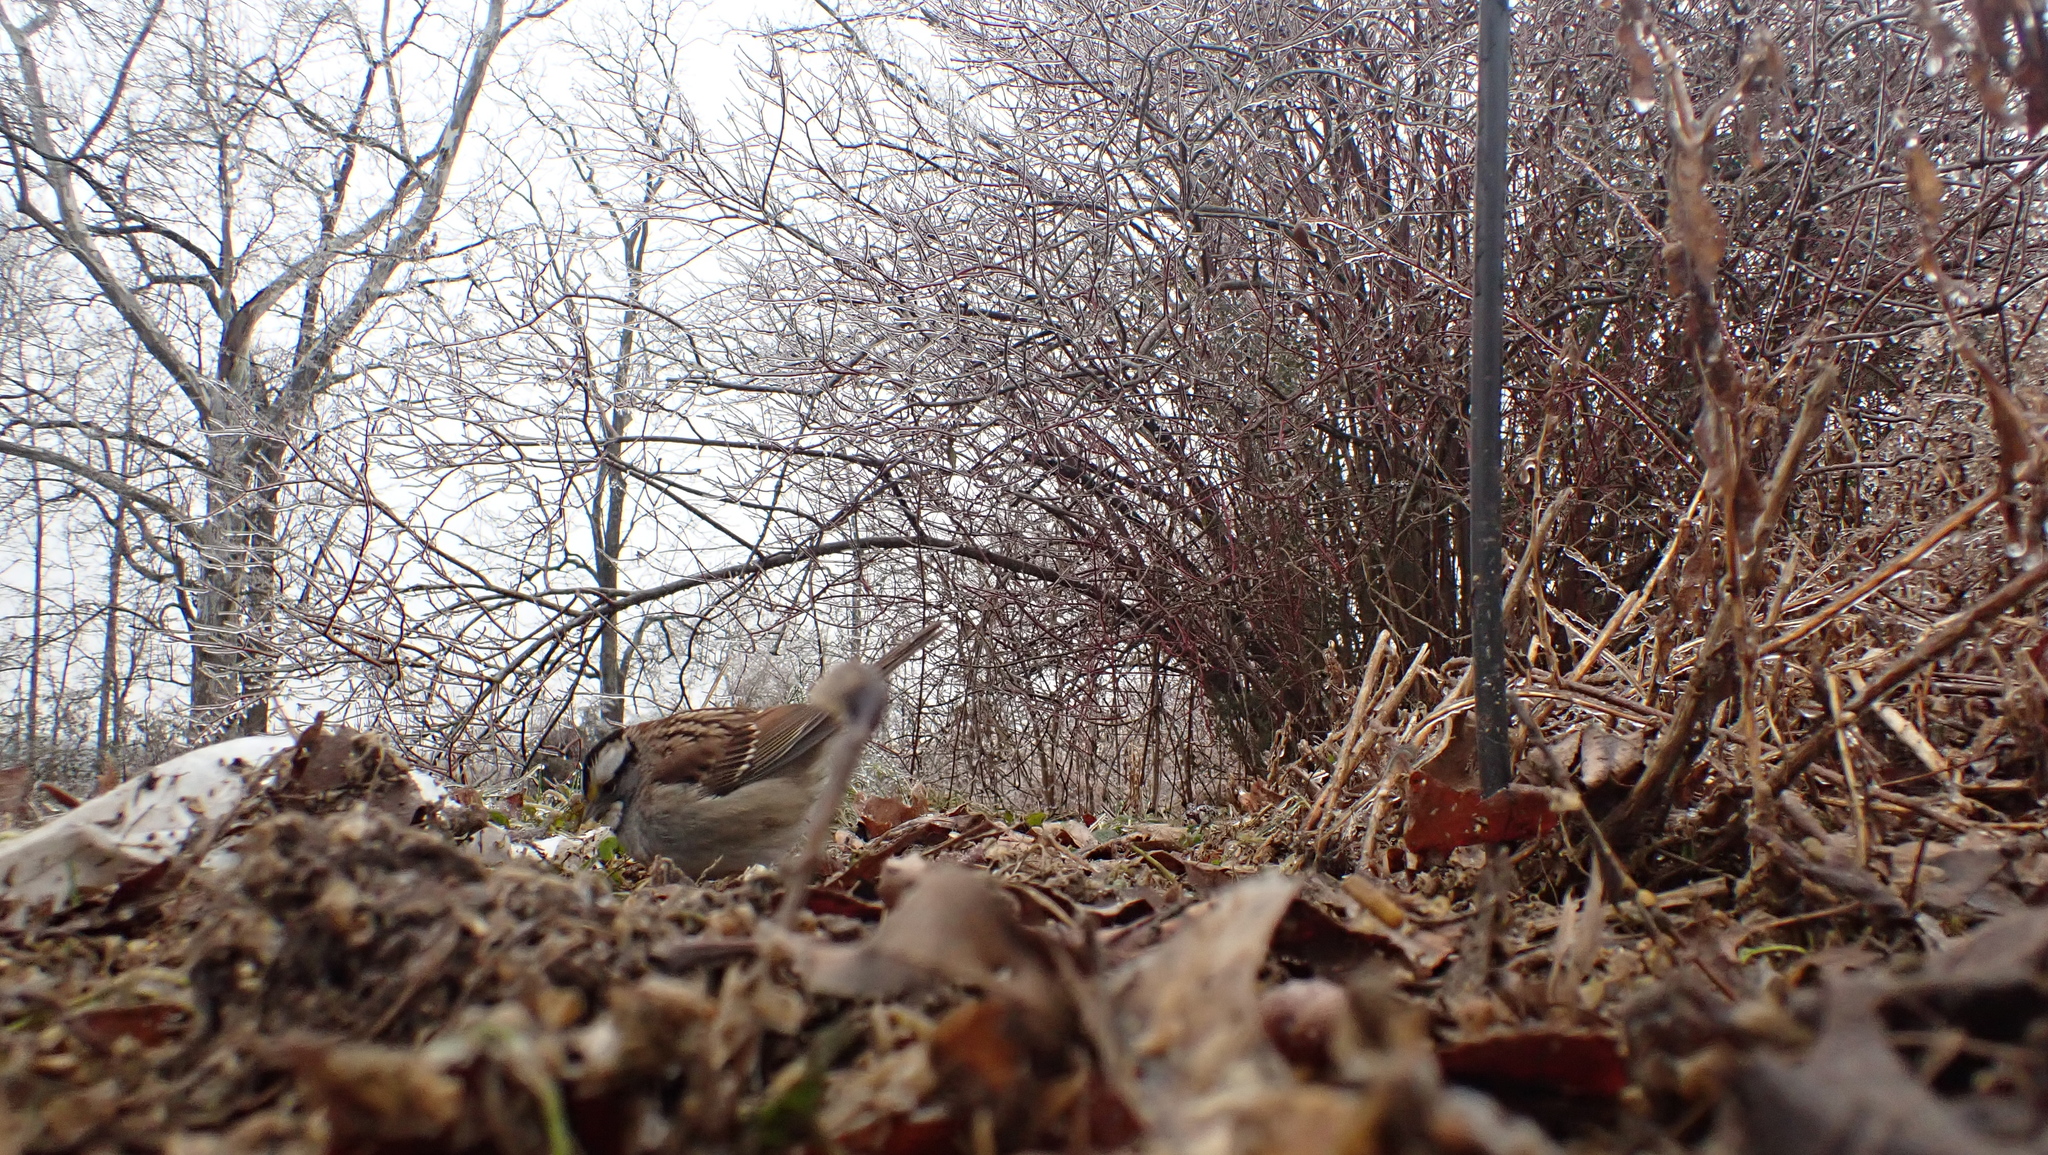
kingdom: Animalia
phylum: Chordata
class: Aves
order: Passeriformes
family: Passerellidae
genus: Zonotrichia
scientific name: Zonotrichia albicollis
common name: White-throated sparrow
